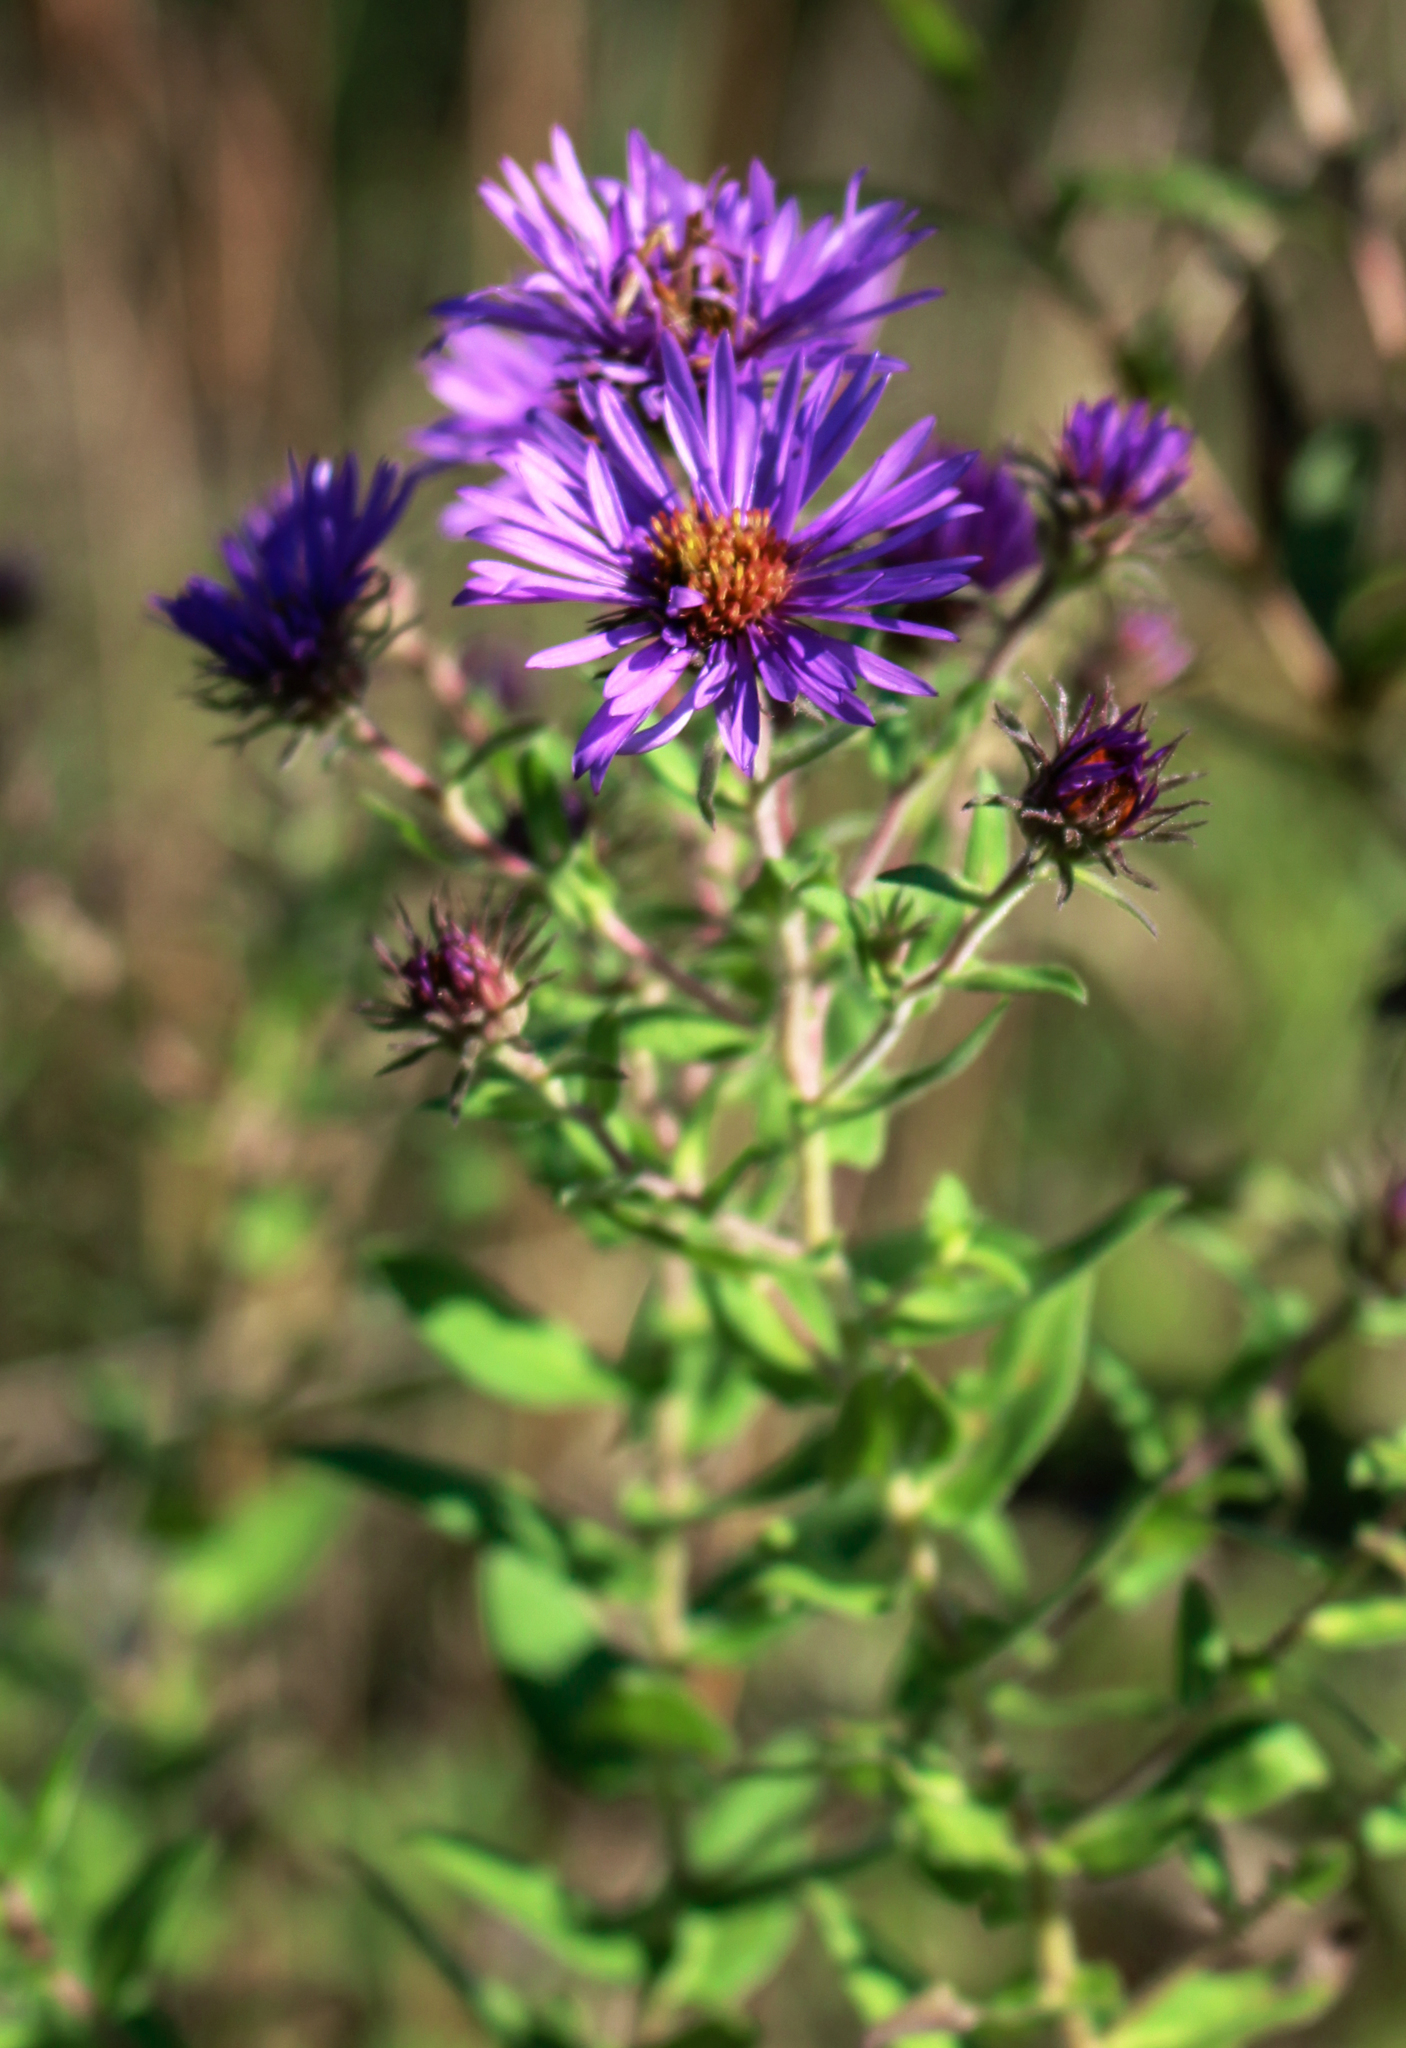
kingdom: Plantae
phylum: Tracheophyta
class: Magnoliopsida
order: Asterales
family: Asteraceae
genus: Symphyotrichum
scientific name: Symphyotrichum novae-angliae
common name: Michaelmas daisy
